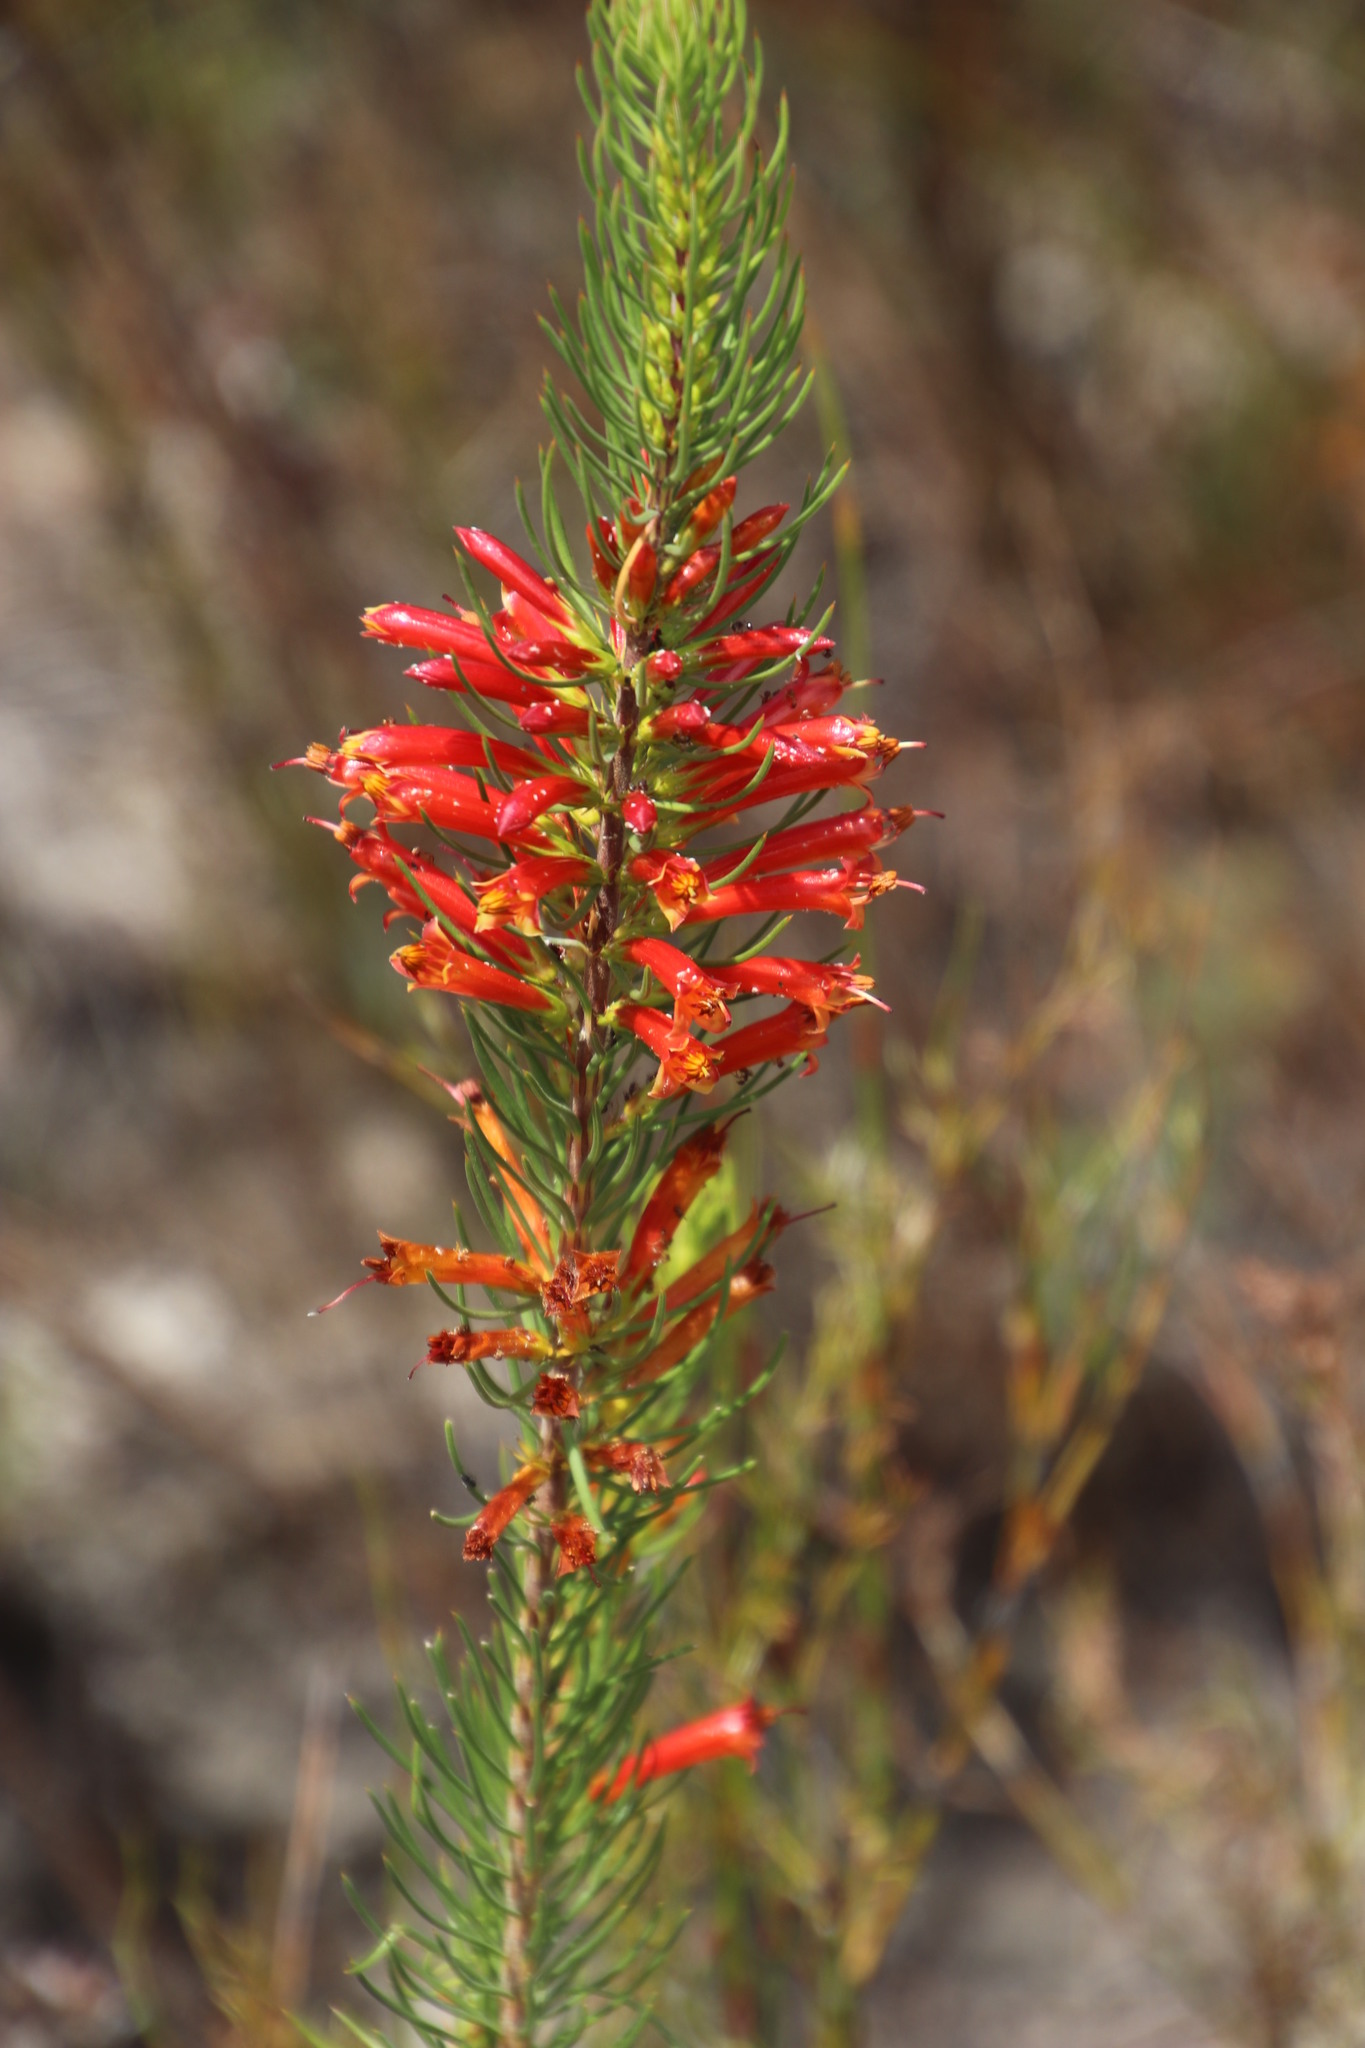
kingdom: Plantae
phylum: Tracheophyta
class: Magnoliopsida
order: Ericales
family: Ericaceae
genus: Erica
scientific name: Erica grandiflora
